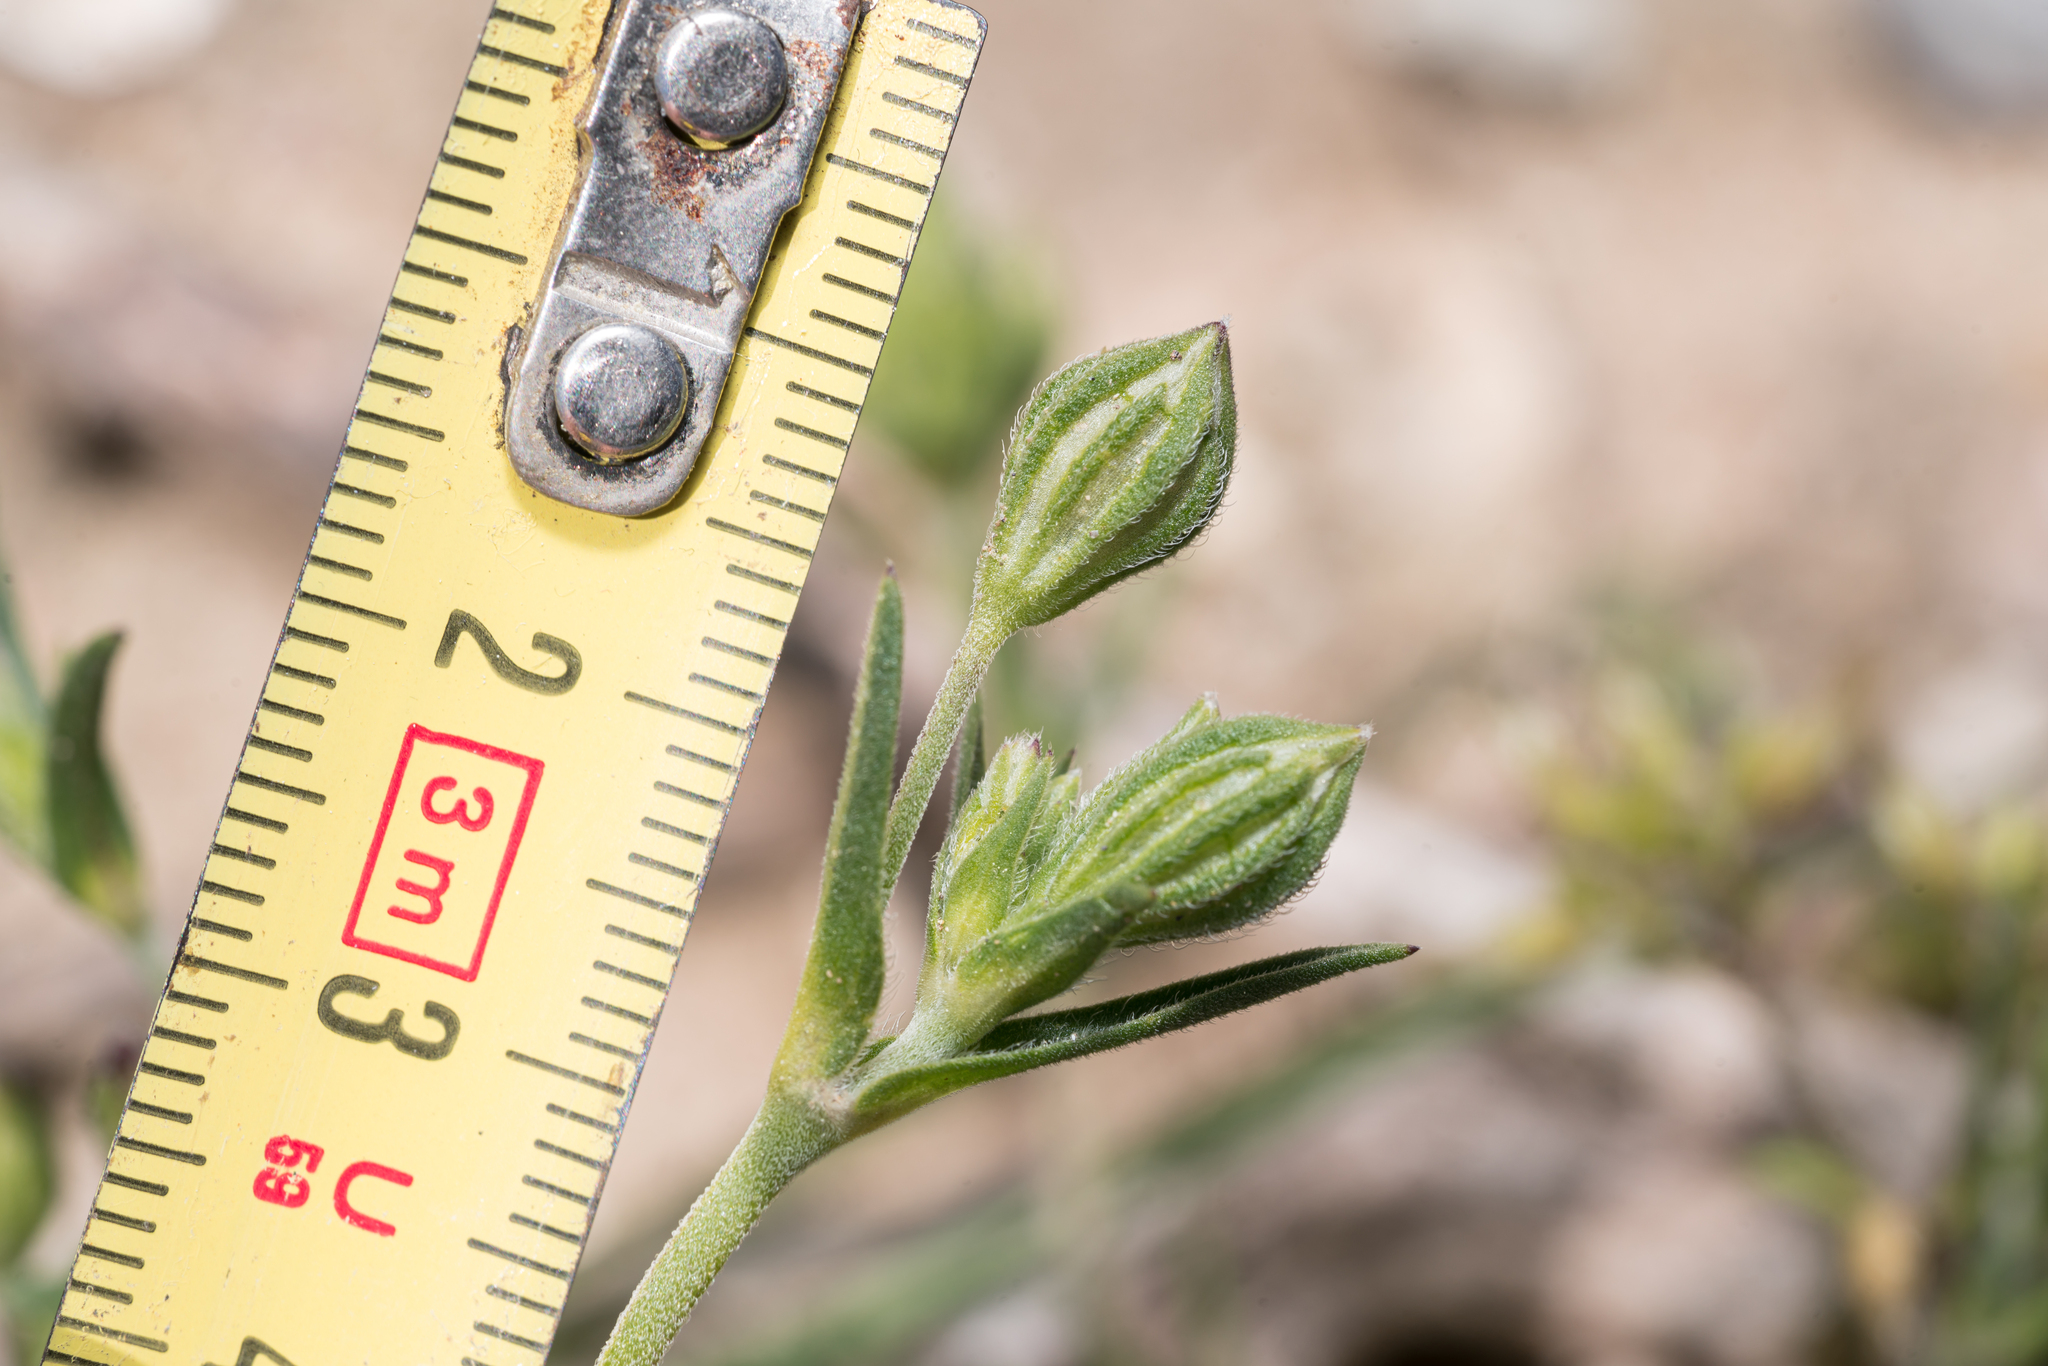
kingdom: Plantae
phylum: Tracheophyta
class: Magnoliopsida
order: Caryophyllales
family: Caryophyllaceae
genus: Silene
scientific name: Silene apetala
